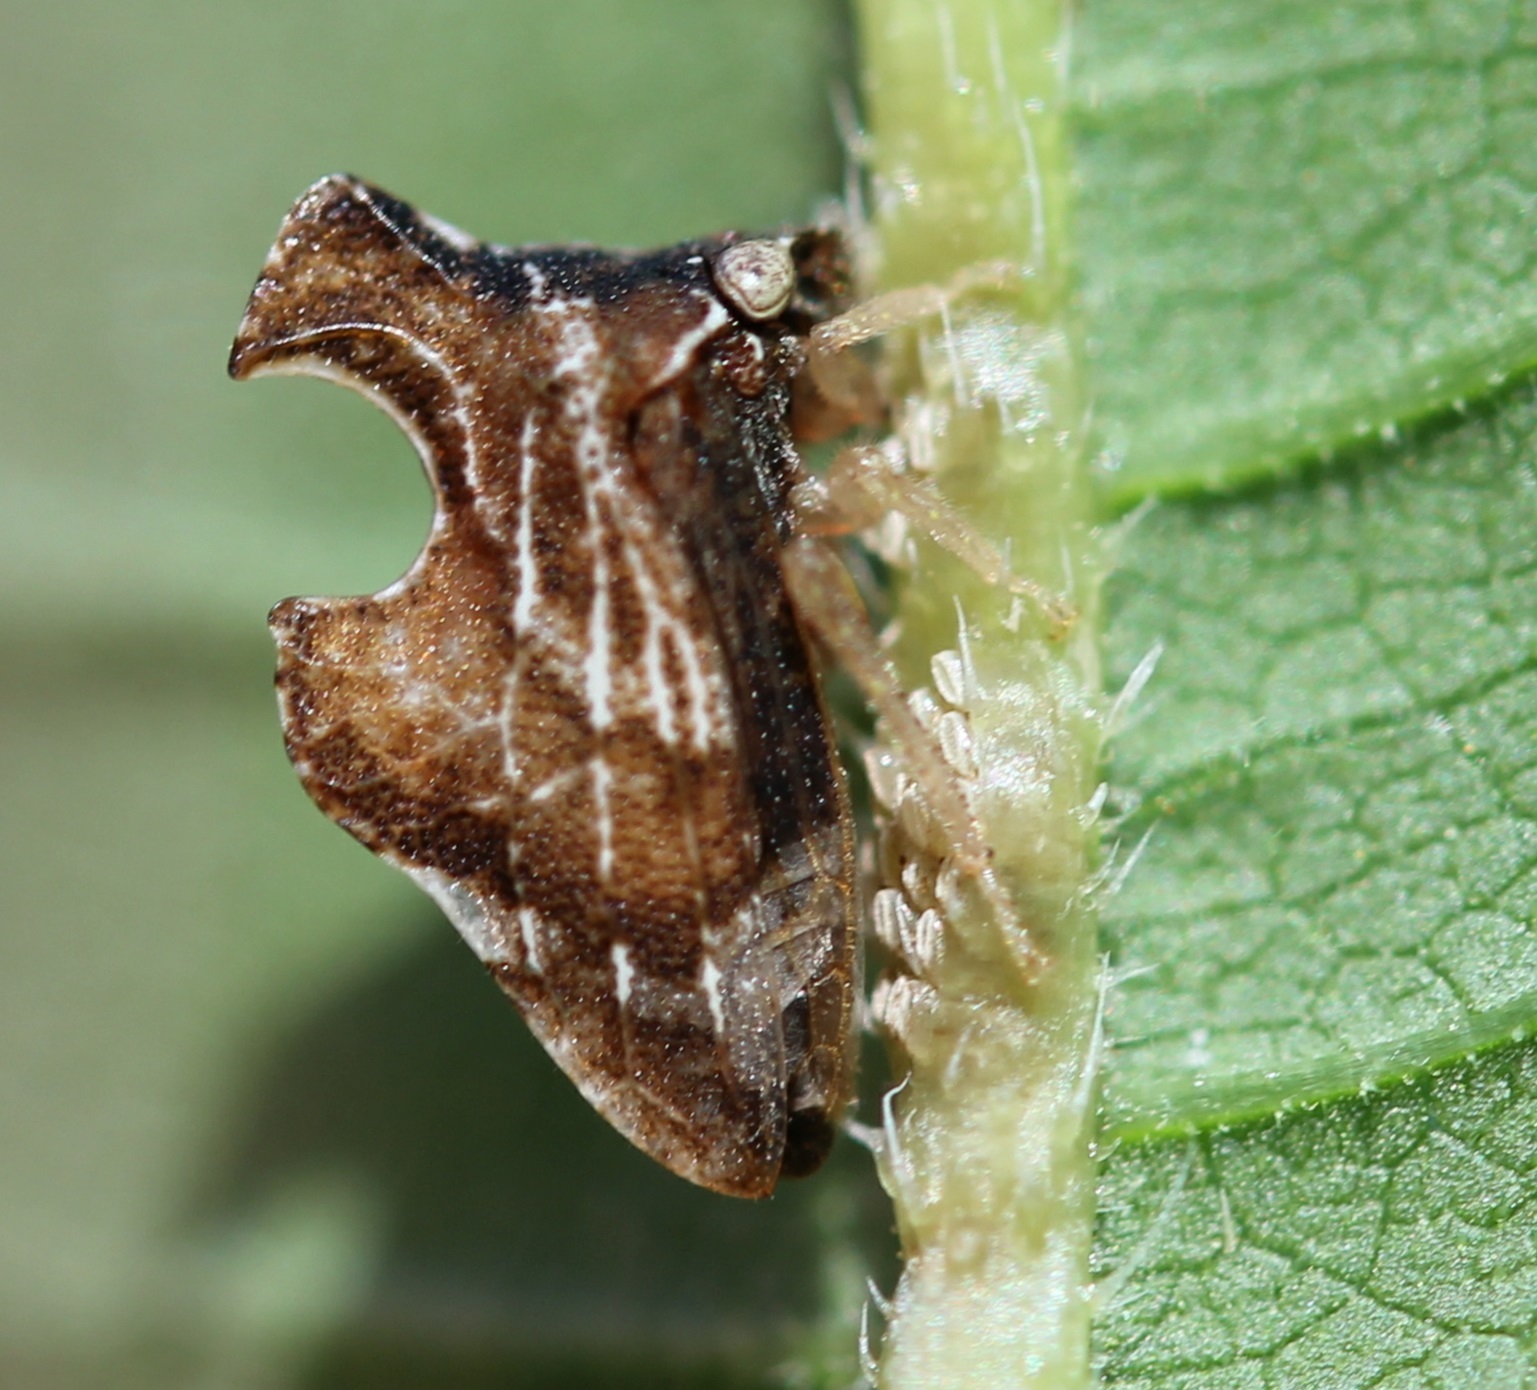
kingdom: Animalia
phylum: Arthropoda
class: Insecta
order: Hemiptera
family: Membracidae
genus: Entylia
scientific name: Entylia carinata
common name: Keeled treehopper
